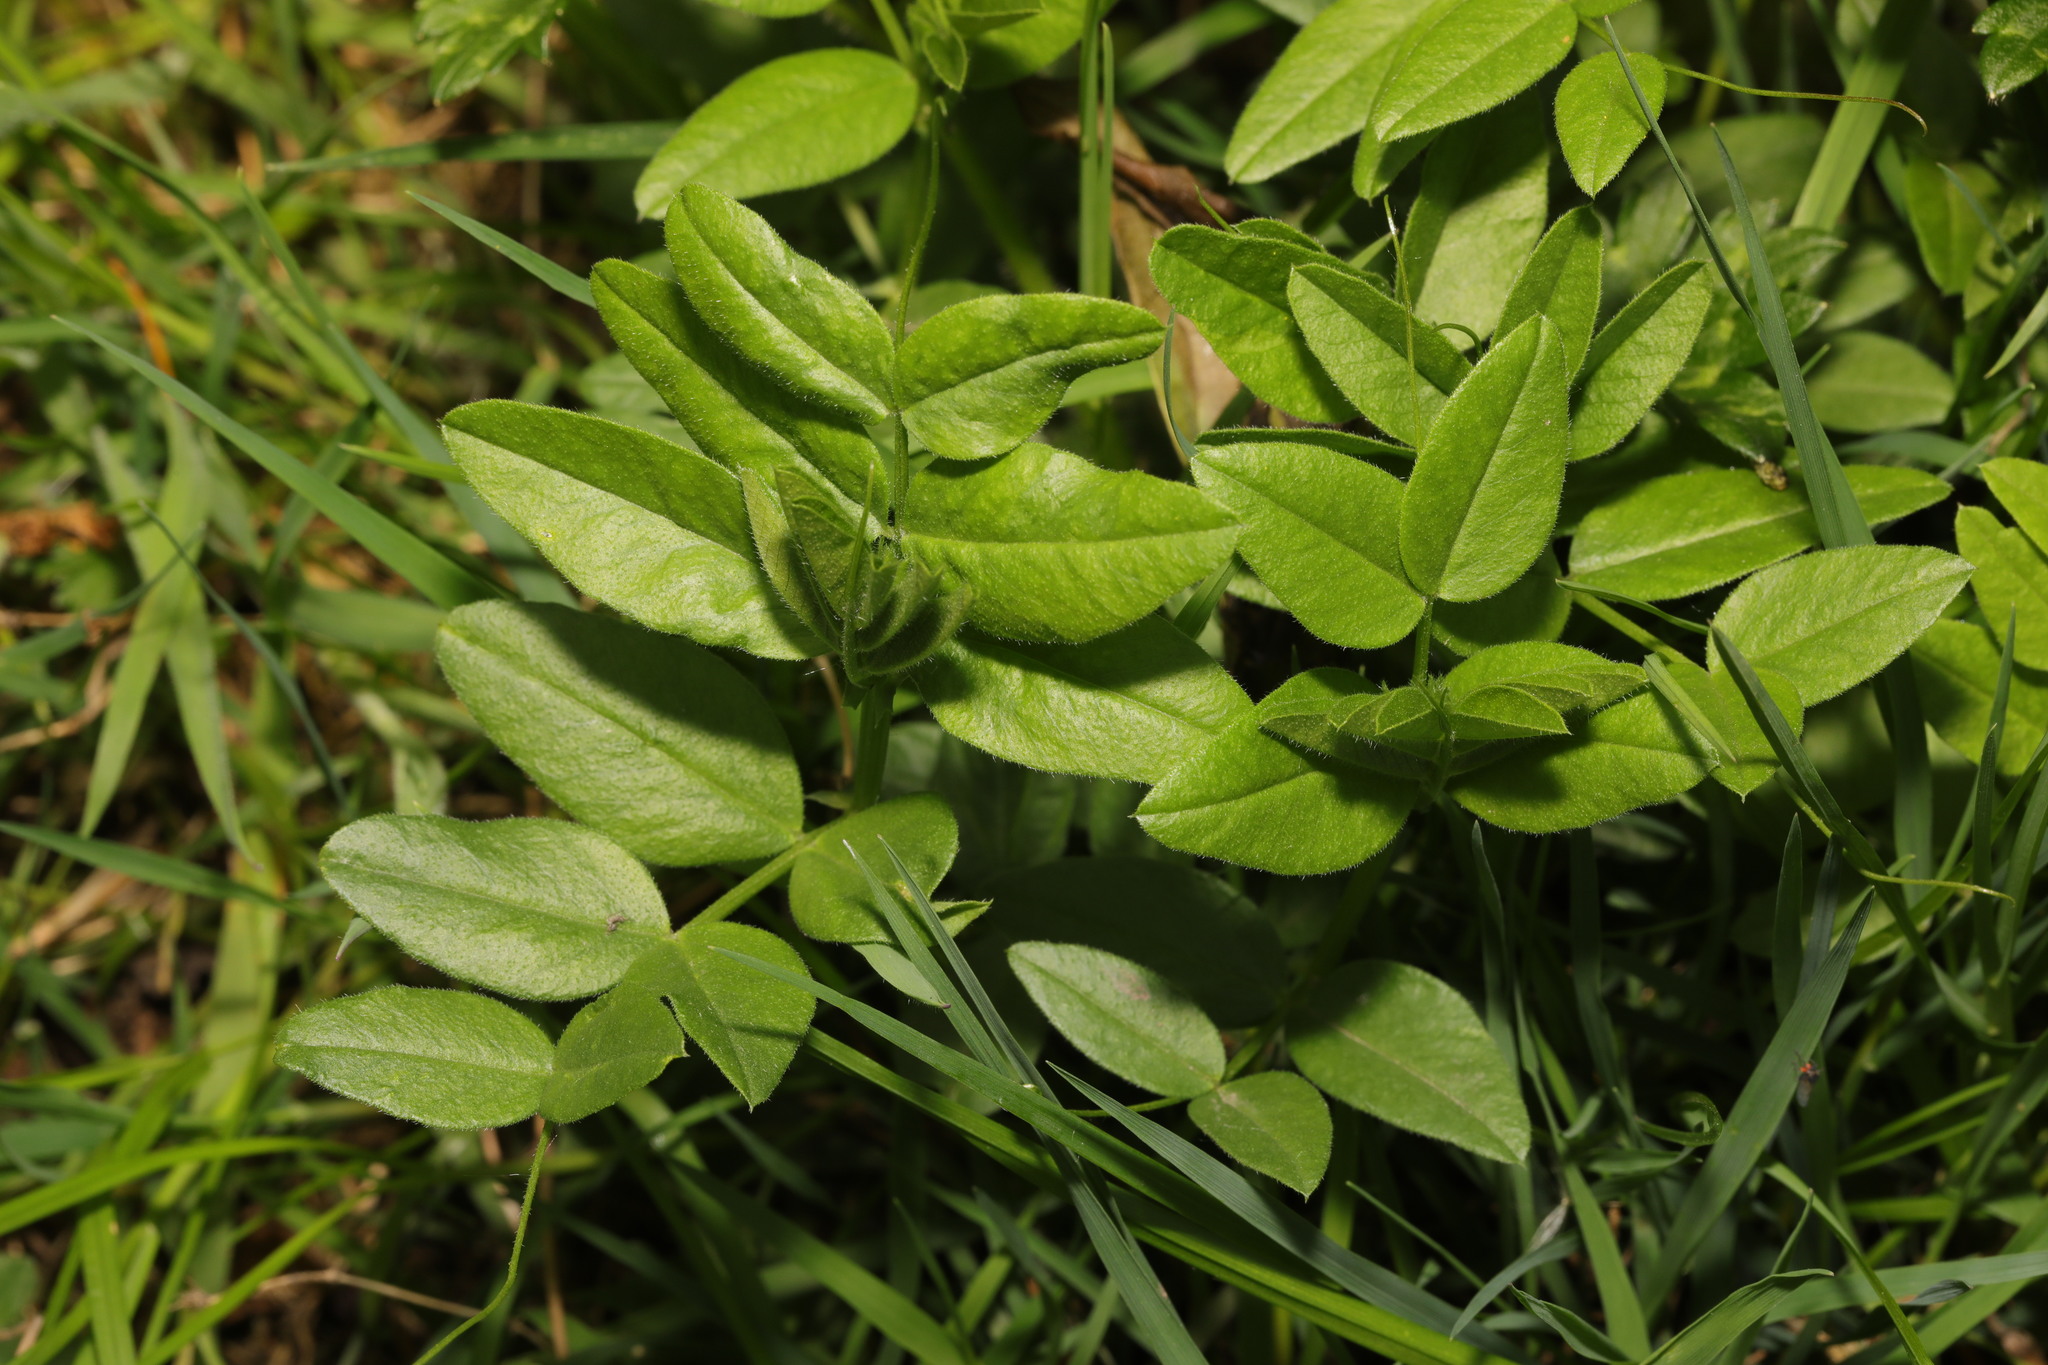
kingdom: Plantae
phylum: Tracheophyta
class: Magnoliopsida
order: Fabales
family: Fabaceae
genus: Vicia
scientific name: Vicia sepium
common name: Bush vetch
